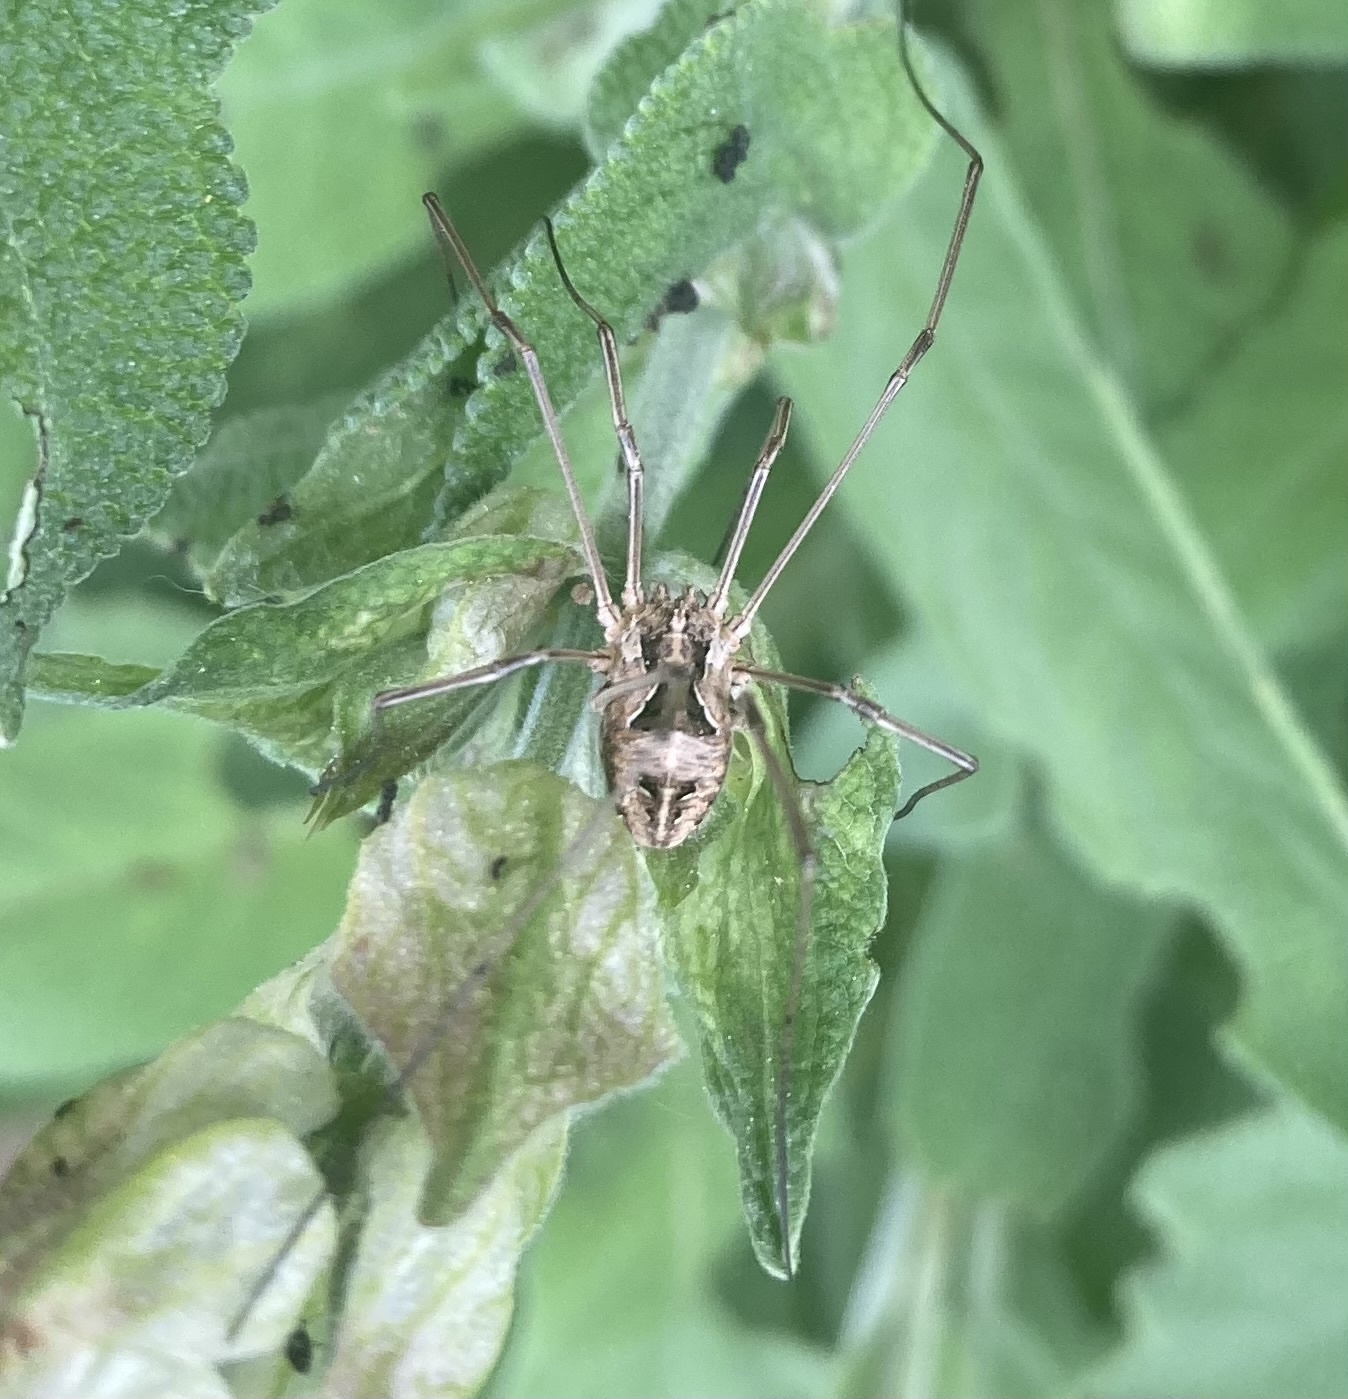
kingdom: Animalia
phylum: Arthropoda
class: Arachnida
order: Opiliones
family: Phalangiidae
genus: Metaphalangium
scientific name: Metaphalangium cirtanum
